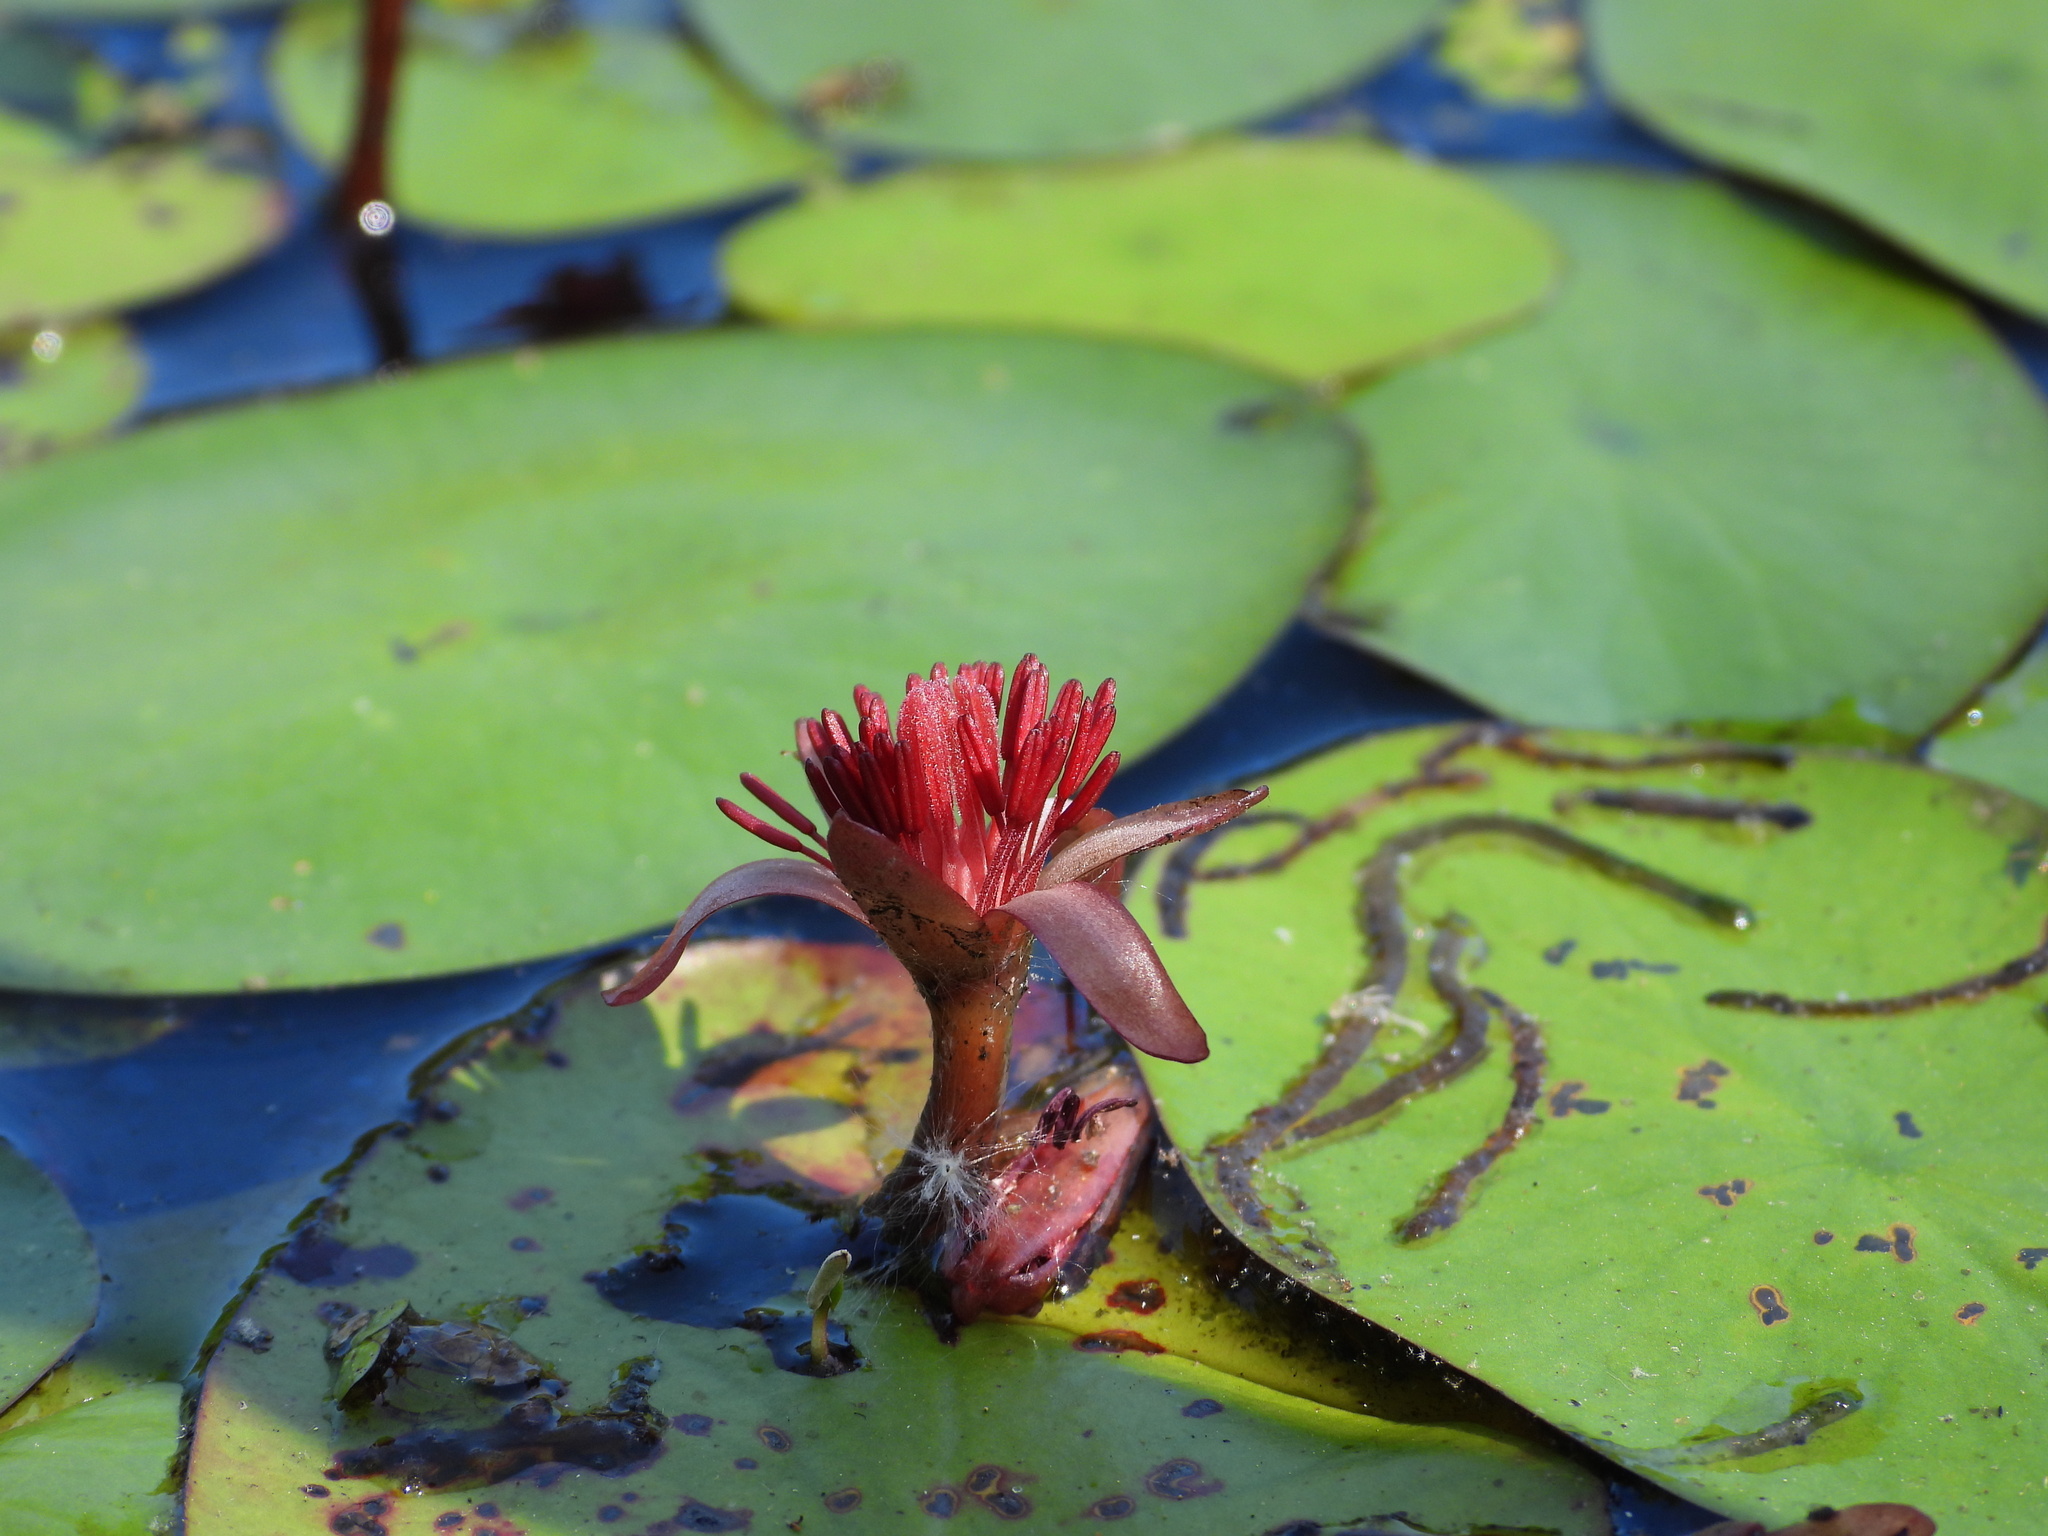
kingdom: Plantae
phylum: Tracheophyta
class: Magnoliopsida
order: Nymphaeales
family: Cabombaceae
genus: Brasenia
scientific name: Brasenia schreberi
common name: Water-shield
